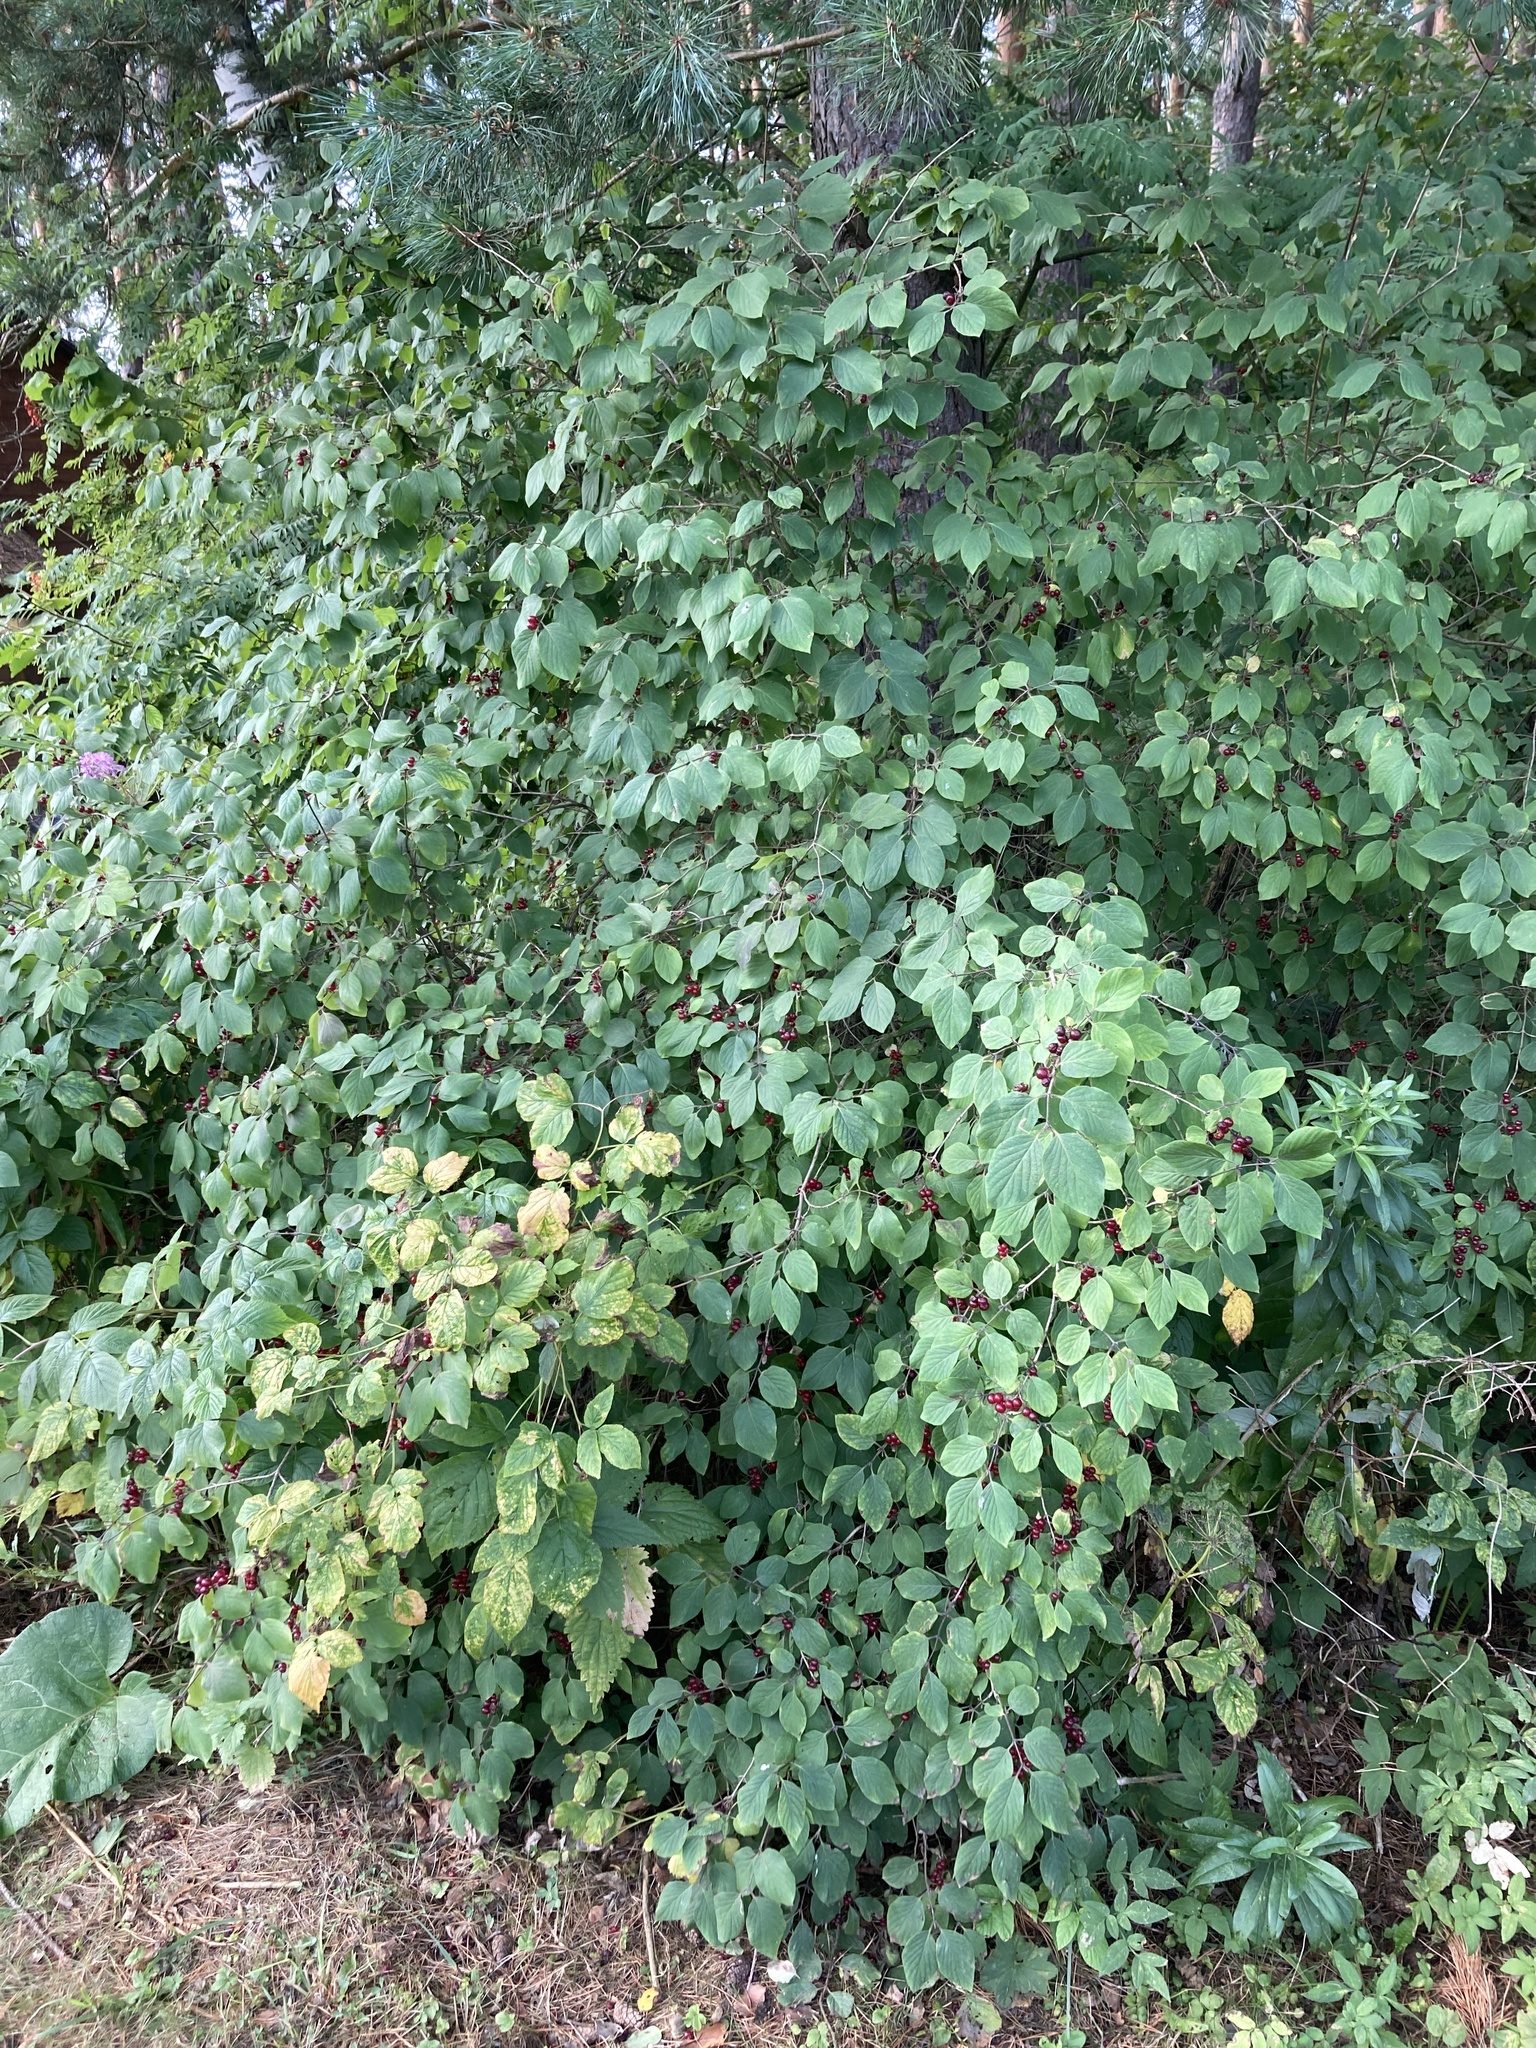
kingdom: Plantae
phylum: Tracheophyta
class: Magnoliopsida
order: Dipsacales
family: Caprifoliaceae
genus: Lonicera
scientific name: Lonicera xylosteum
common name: Fly honeysuckle
